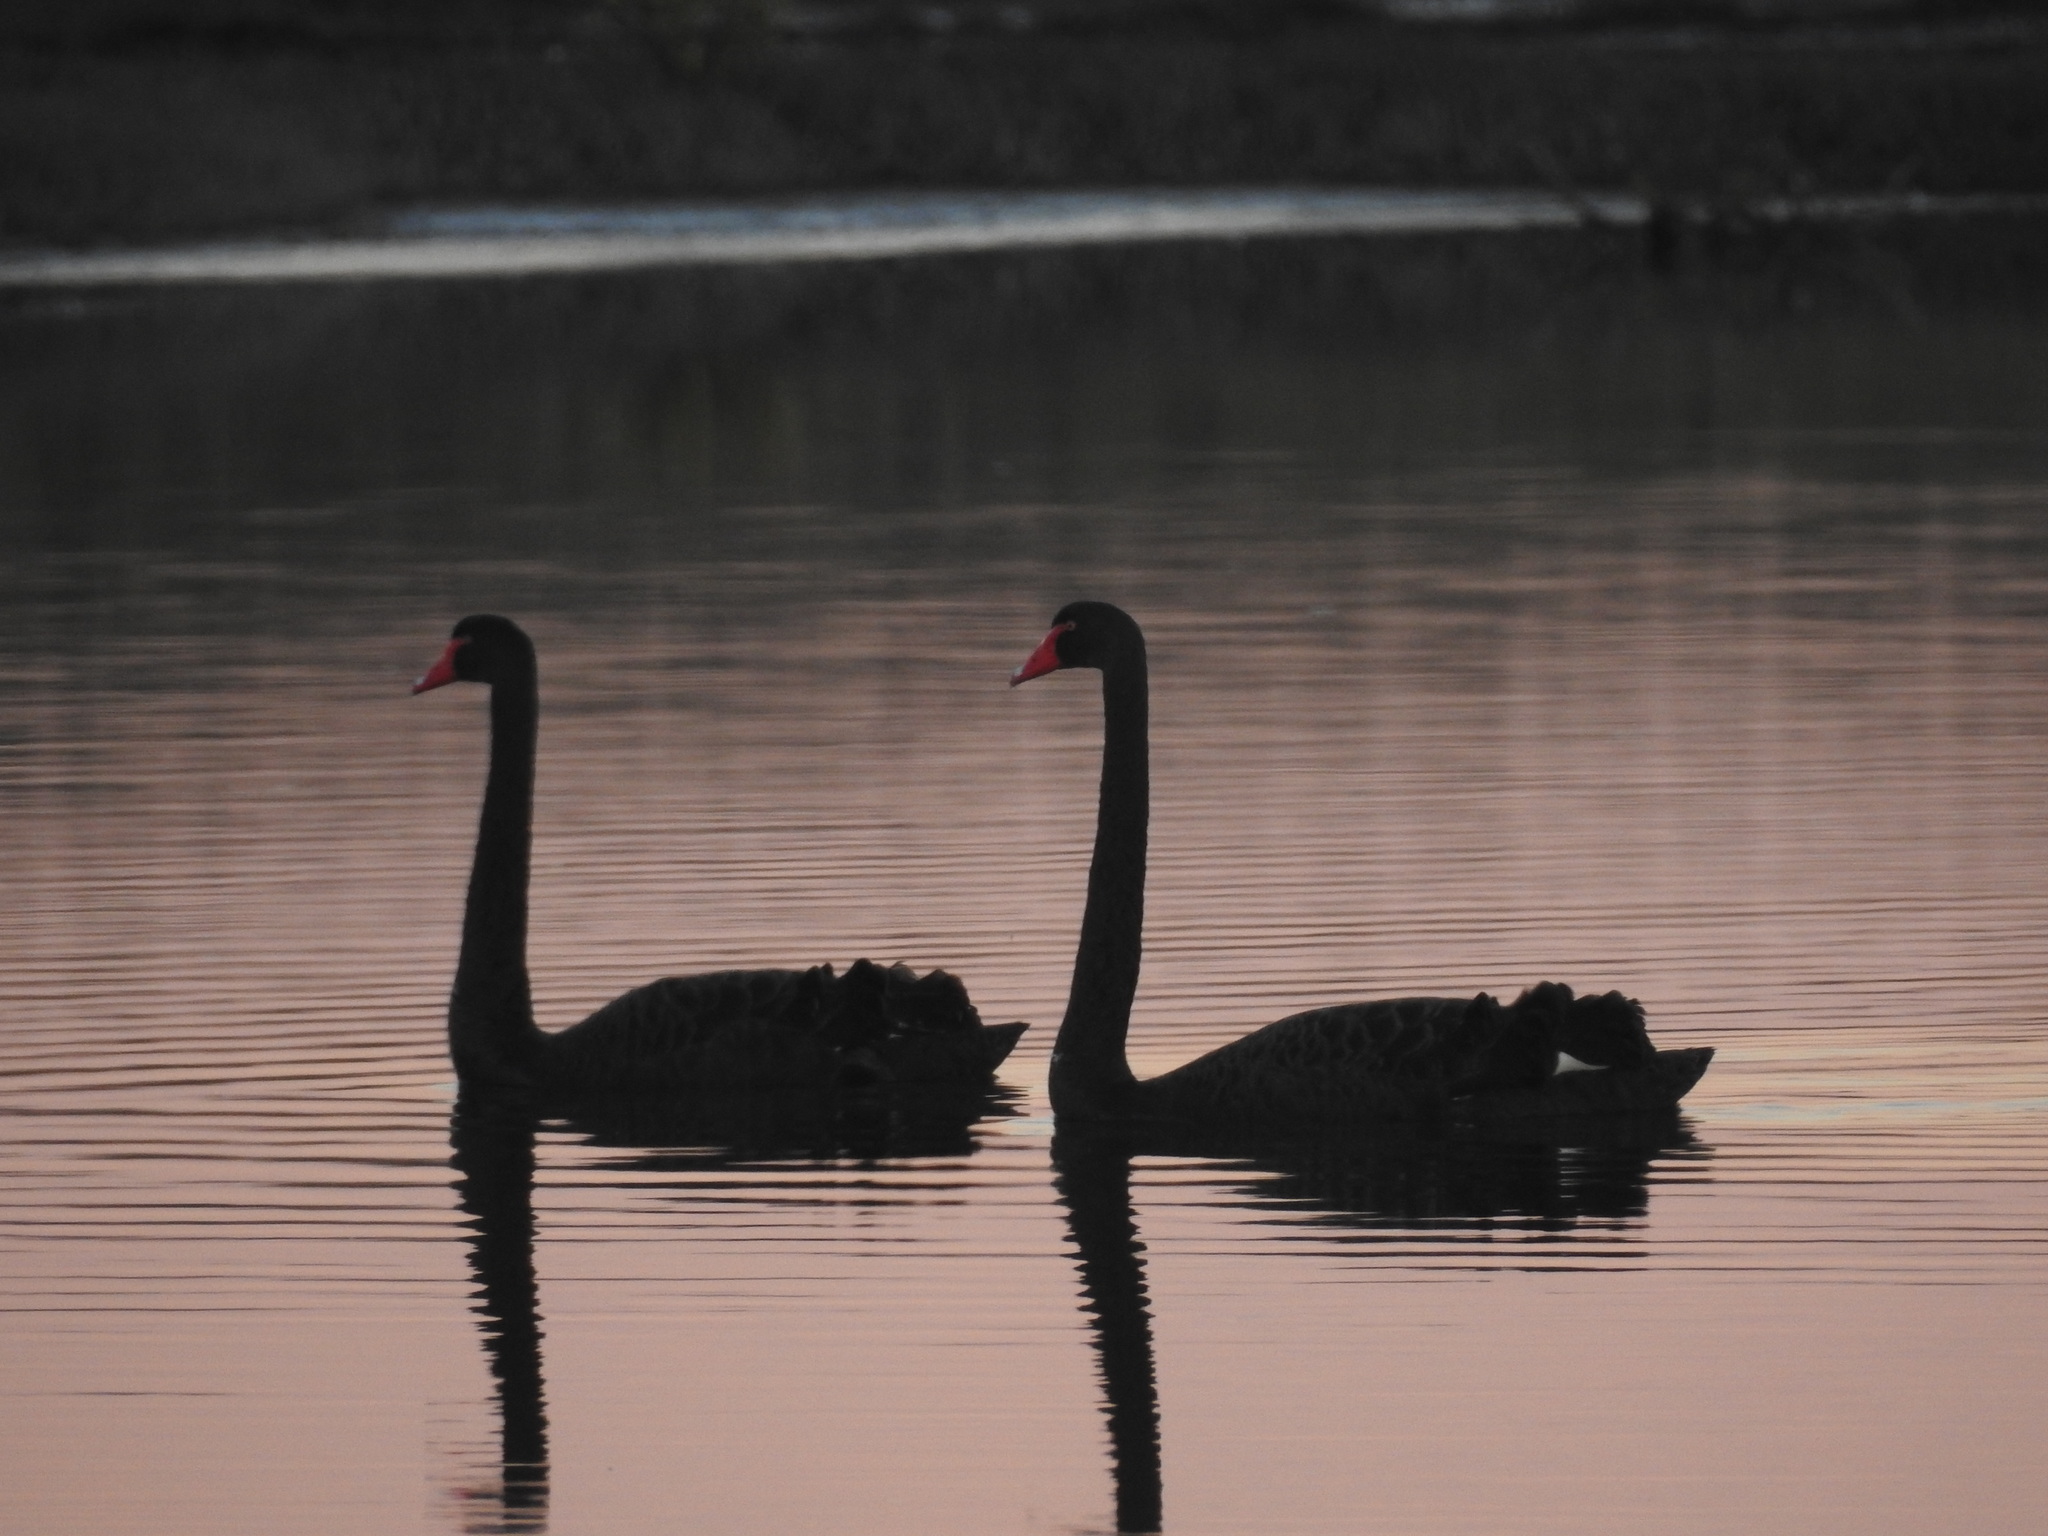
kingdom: Animalia
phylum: Chordata
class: Aves
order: Anseriformes
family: Anatidae
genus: Cygnus
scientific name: Cygnus atratus
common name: Black swan
